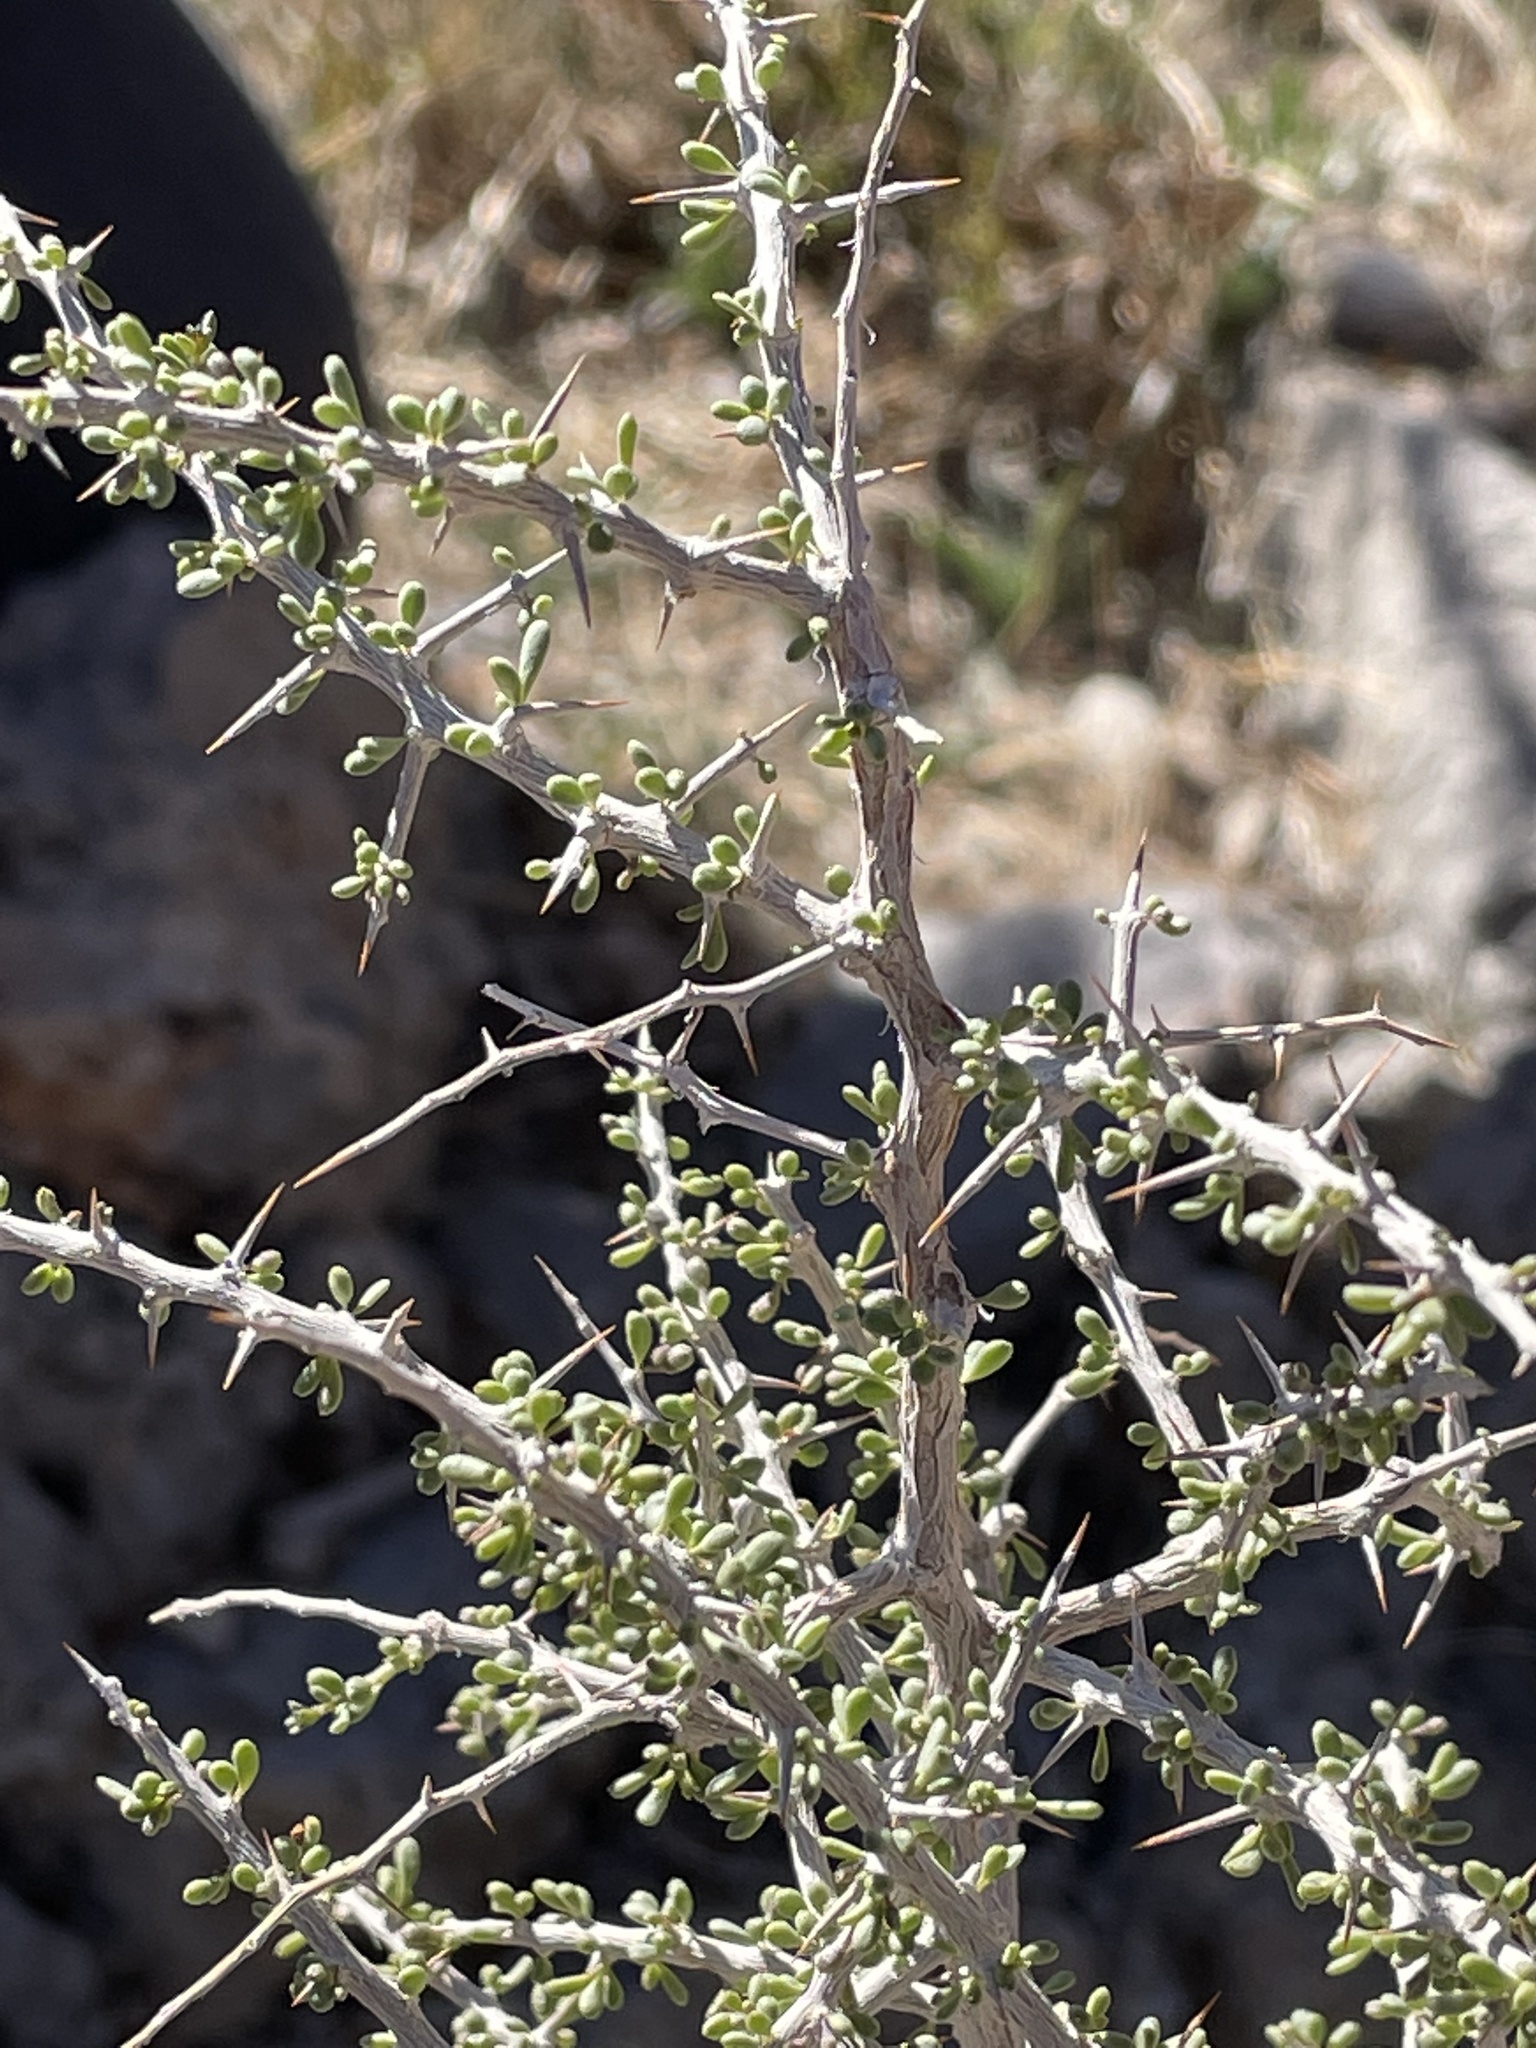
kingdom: Plantae
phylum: Tracheophyta
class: Magnoliopsida
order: Solanales
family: Solanaceae
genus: Lycium
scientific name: Lycium andersonii
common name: Water-jacket
